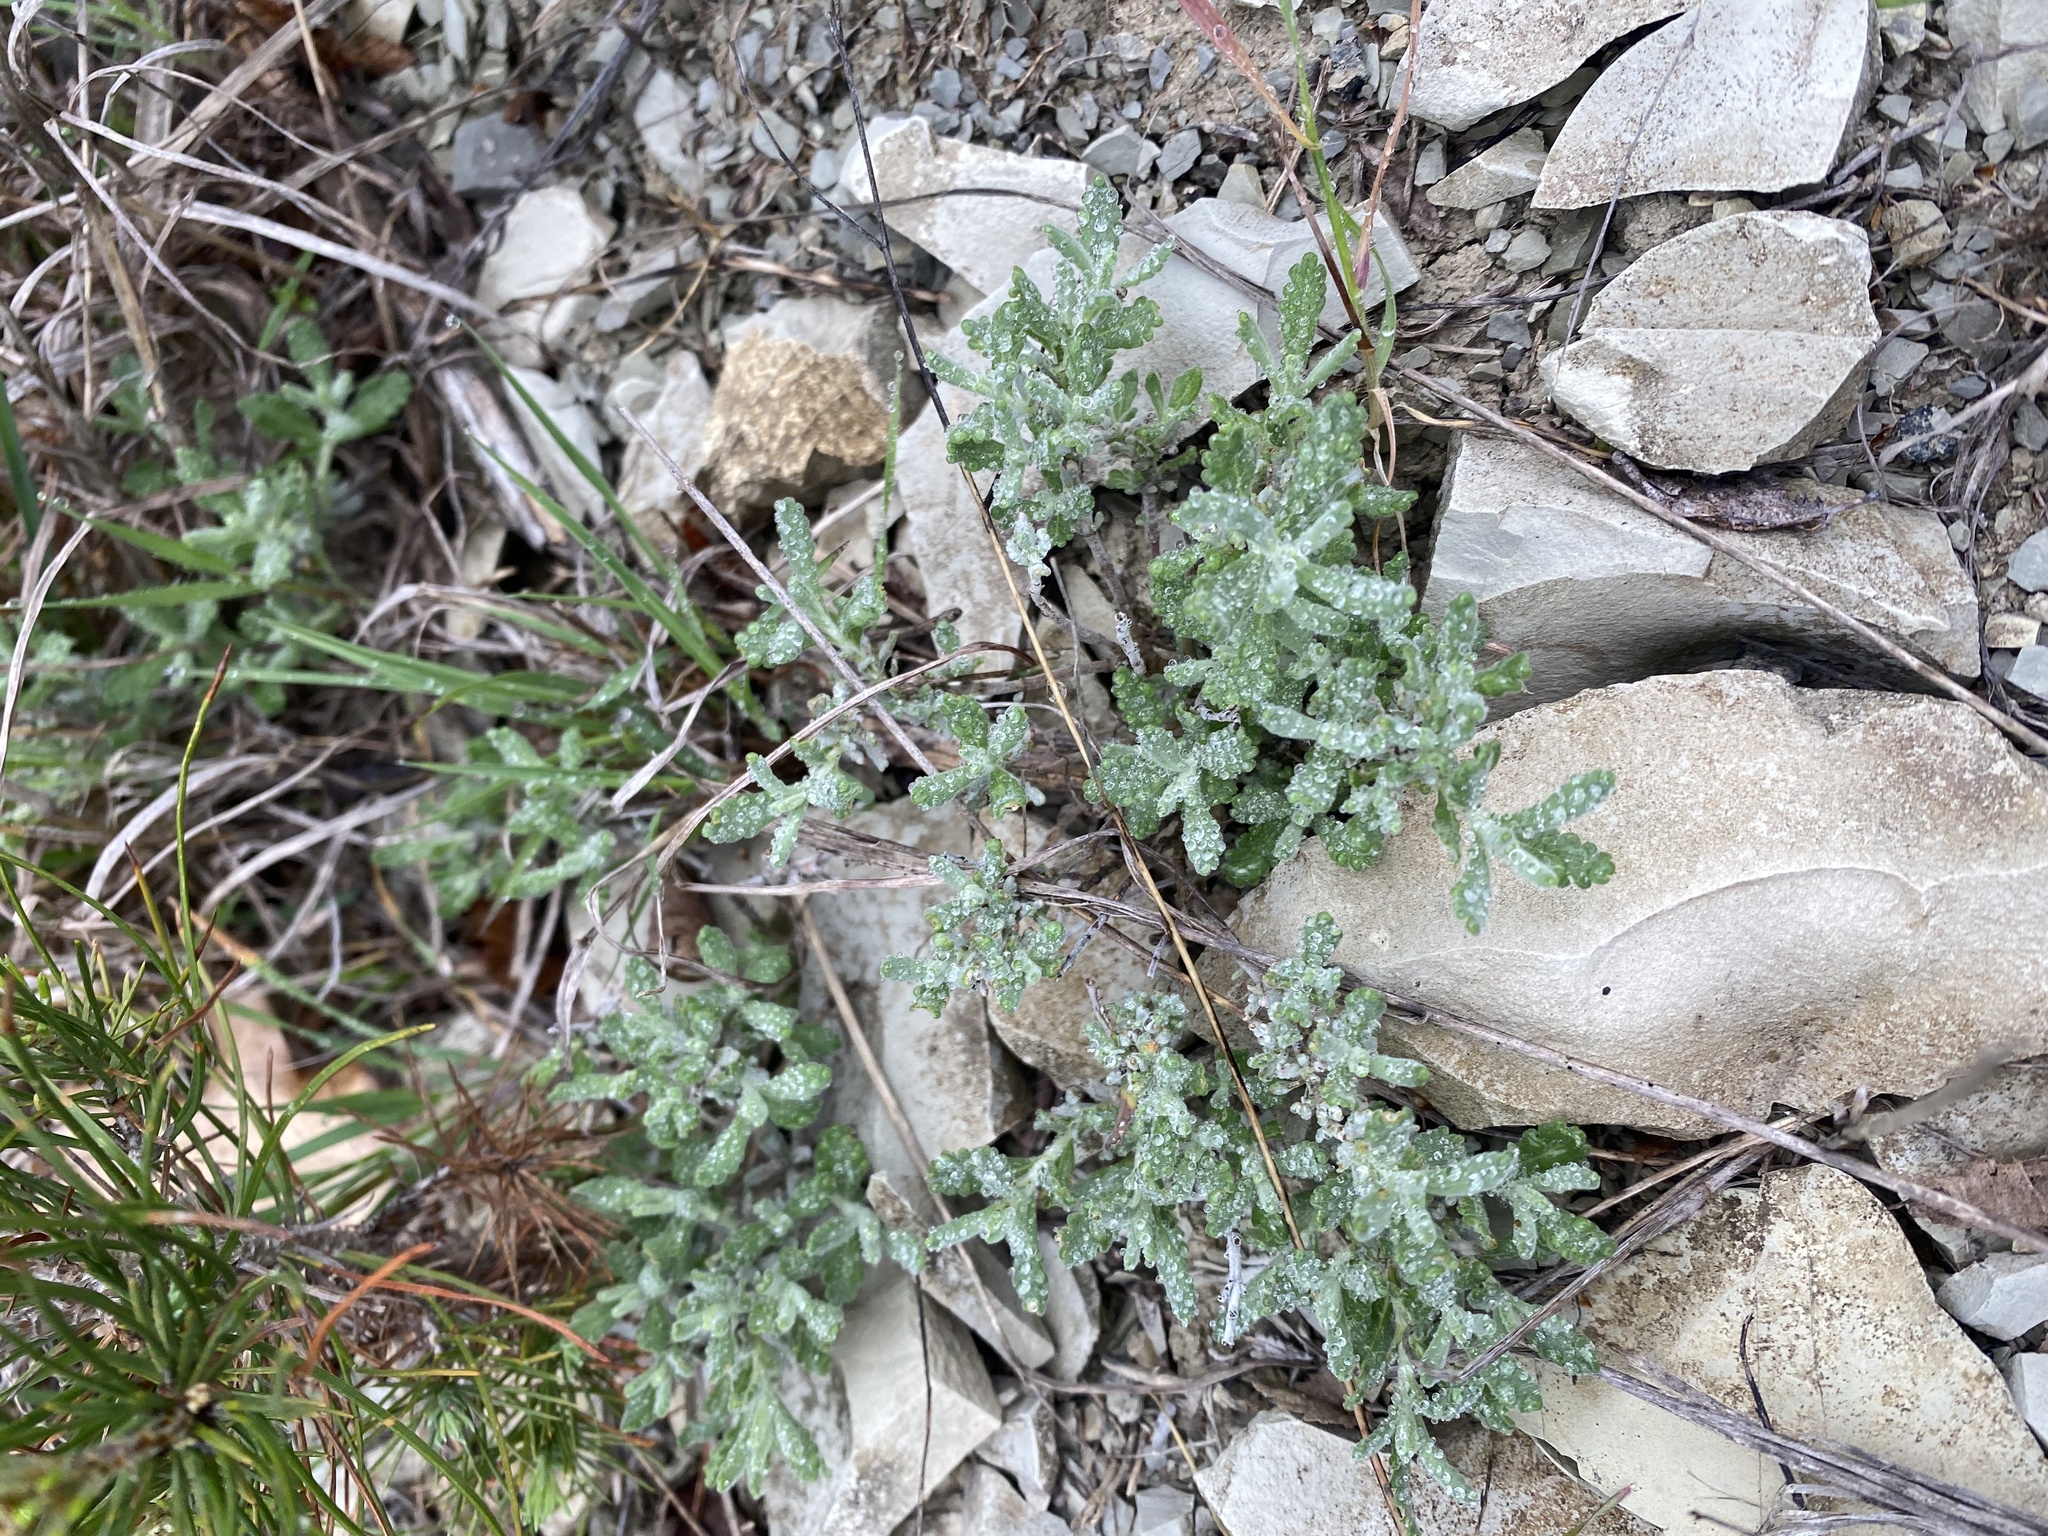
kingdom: Plantae
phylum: Tracheophyta
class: Magnoliopsida
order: Lamiales
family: Lamiaceae
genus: Teucrium
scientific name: Teucrium polium
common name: Poley
